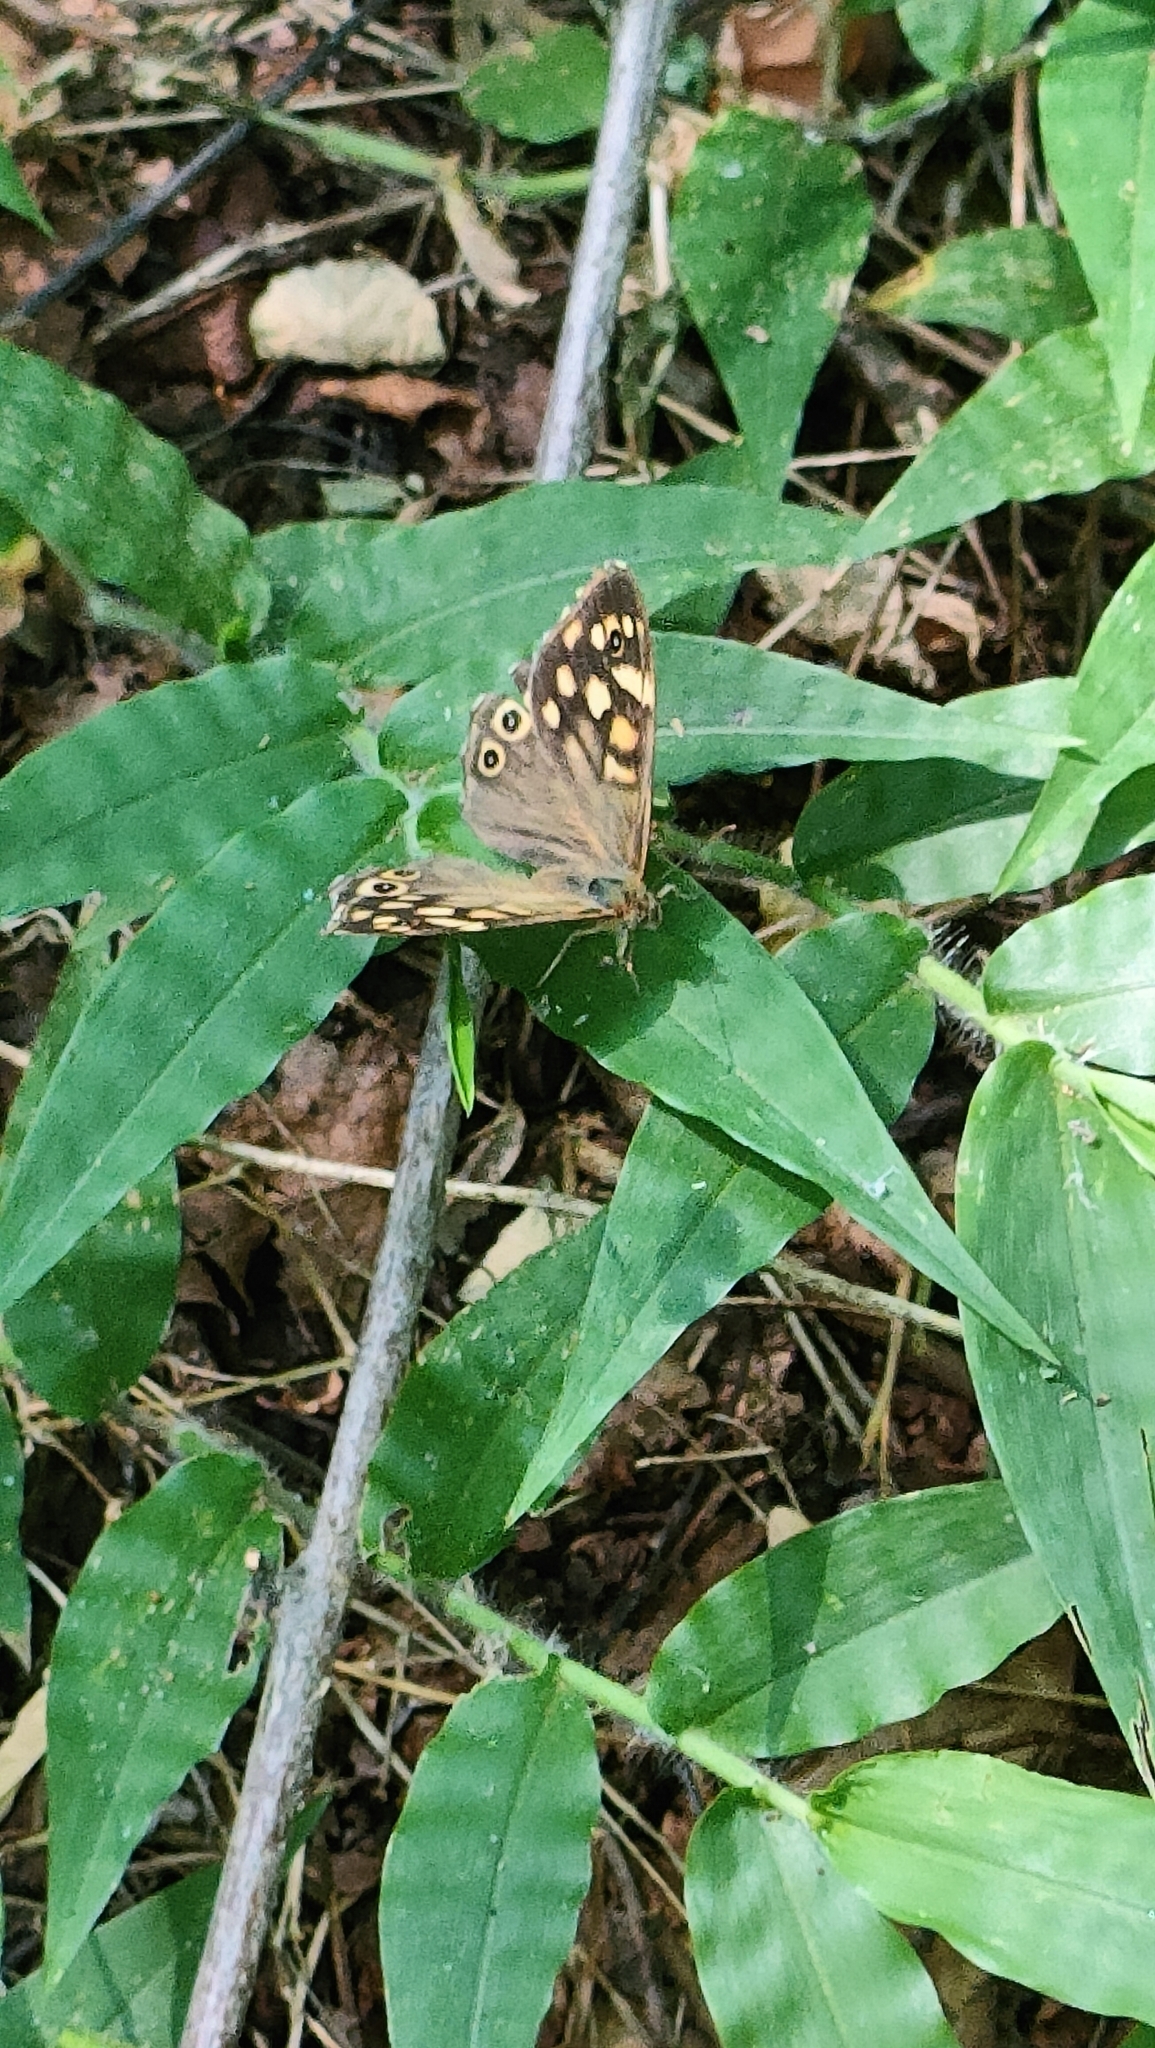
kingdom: Animalia
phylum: Arthropoda
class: Insecta
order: Lepidoptera
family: Nymphalidae
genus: Pararge
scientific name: Pararge aegeria
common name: Speckled wood
